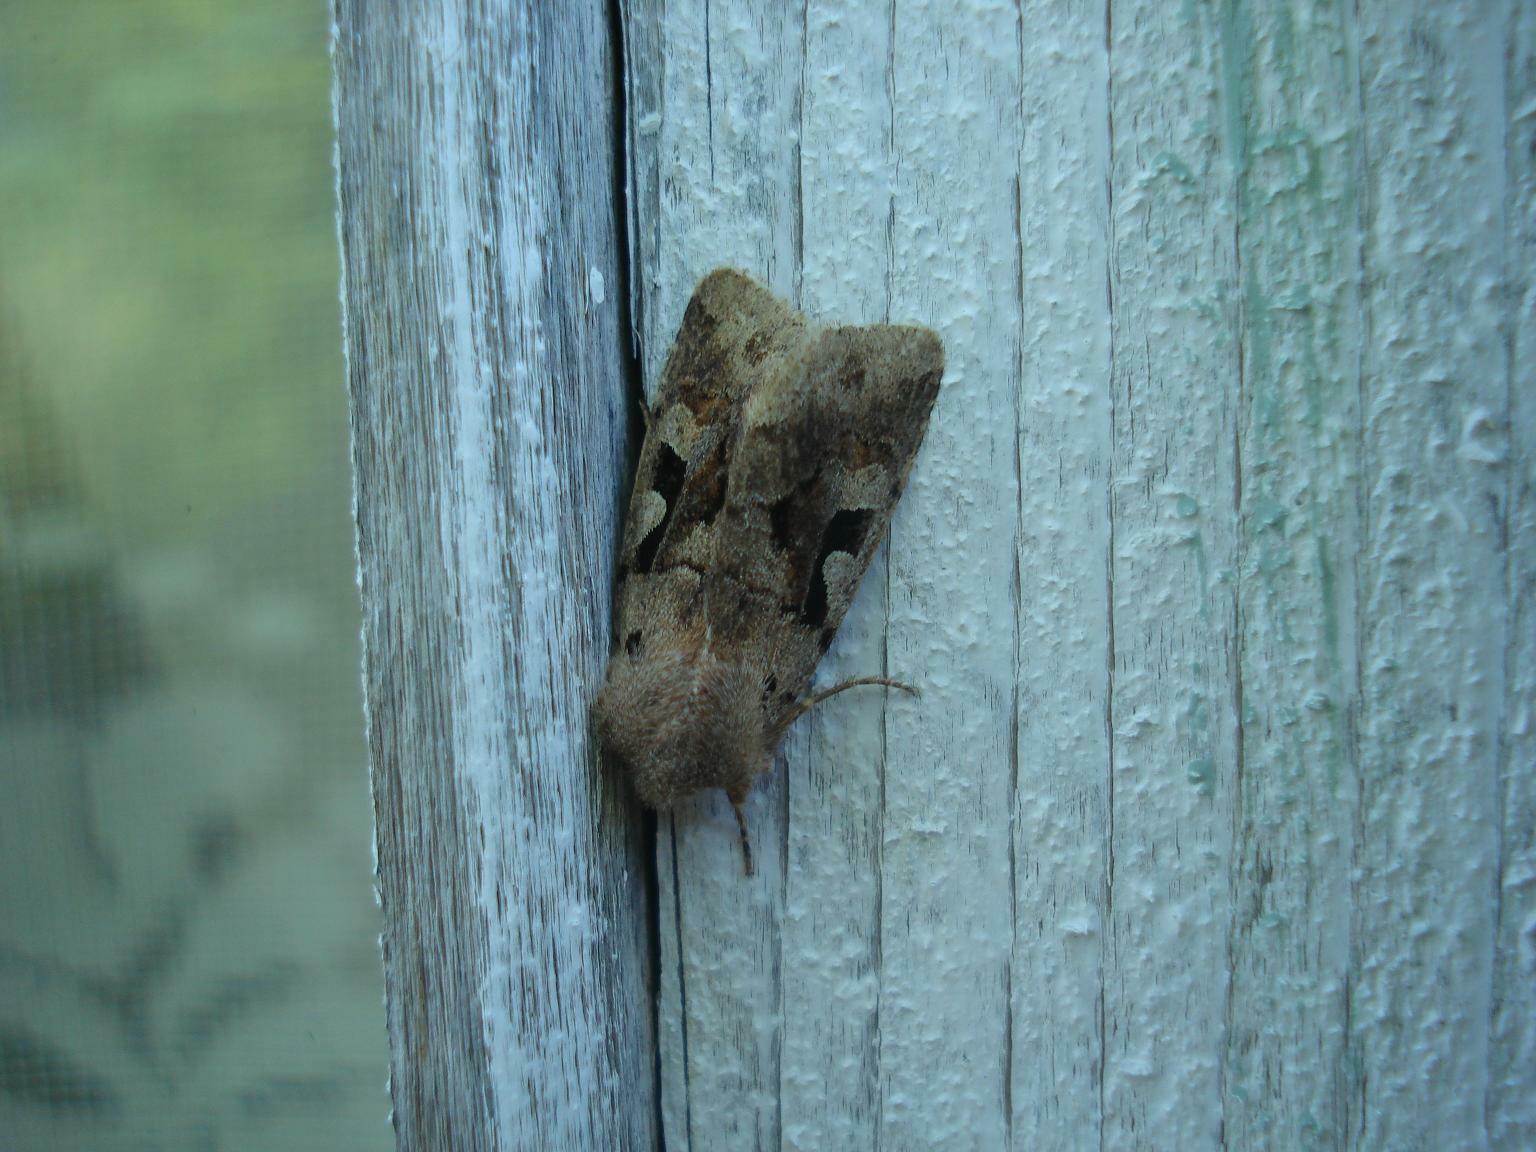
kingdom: Animalia
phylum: Arthropoda
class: Insecta
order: Lepidoptera
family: Noctuidae
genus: Orthosia
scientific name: Orthosia gothica
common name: Hebrew character
